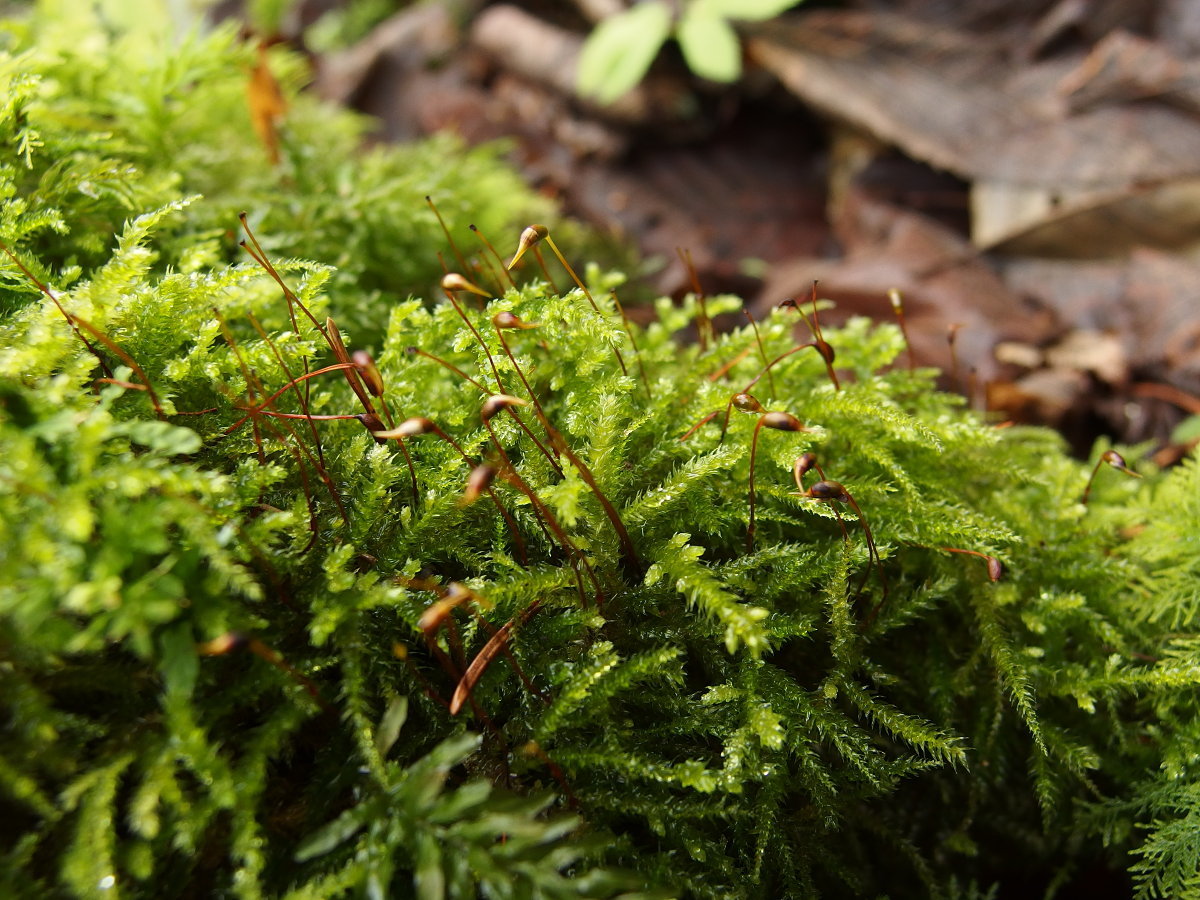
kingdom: Plantae
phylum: Bryophyta
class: Bryopsida
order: Hypnales
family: Brachytheciaceae
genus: Eurhynchium
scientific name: Eurhynchium striatum
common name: Common striated feather-moss
